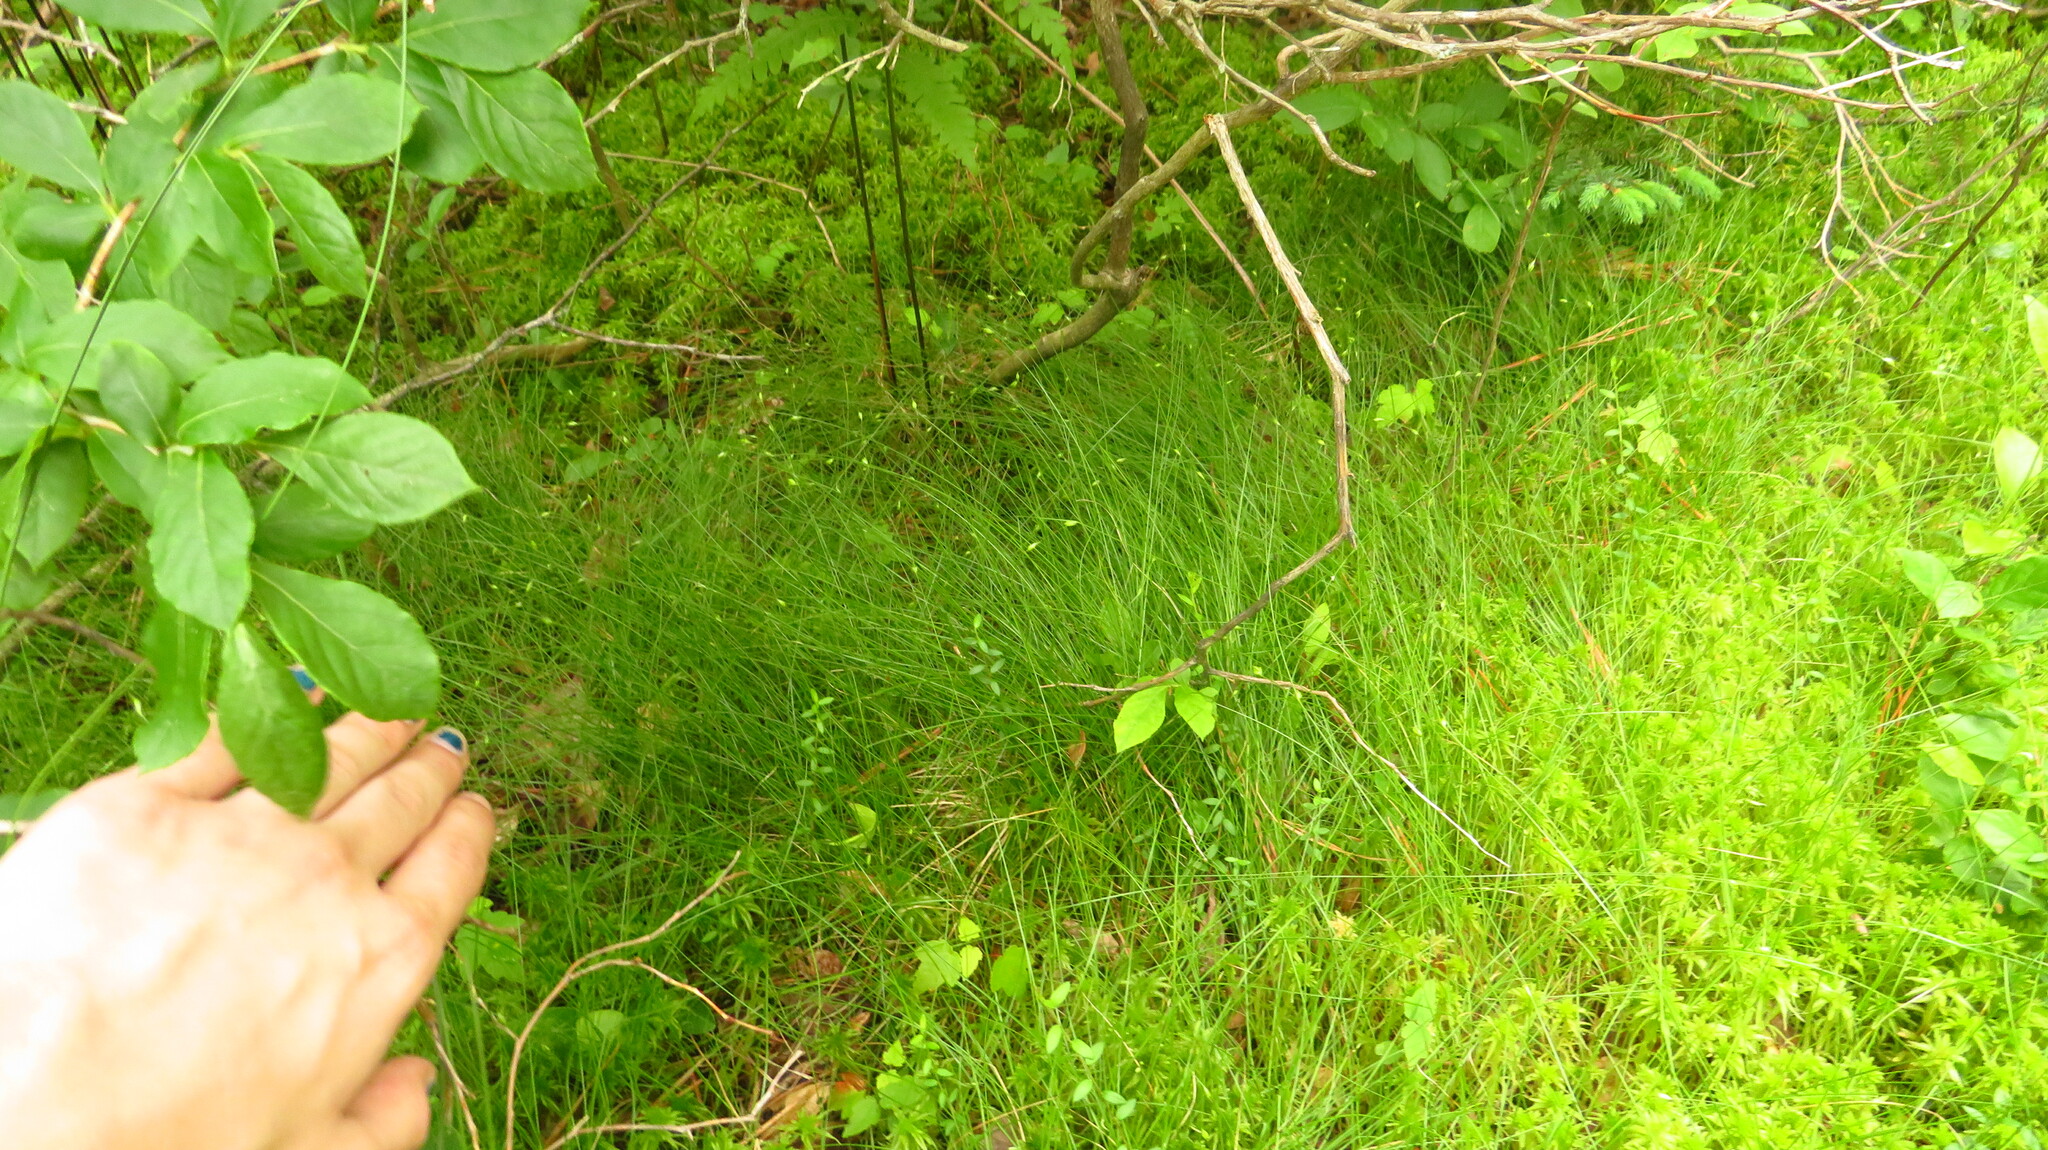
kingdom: Plantae
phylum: Tracheophyta
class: Liliopsida
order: Poales
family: Cyperaceae
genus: Carex
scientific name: Carex trisperma
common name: Three-seeded sedge
